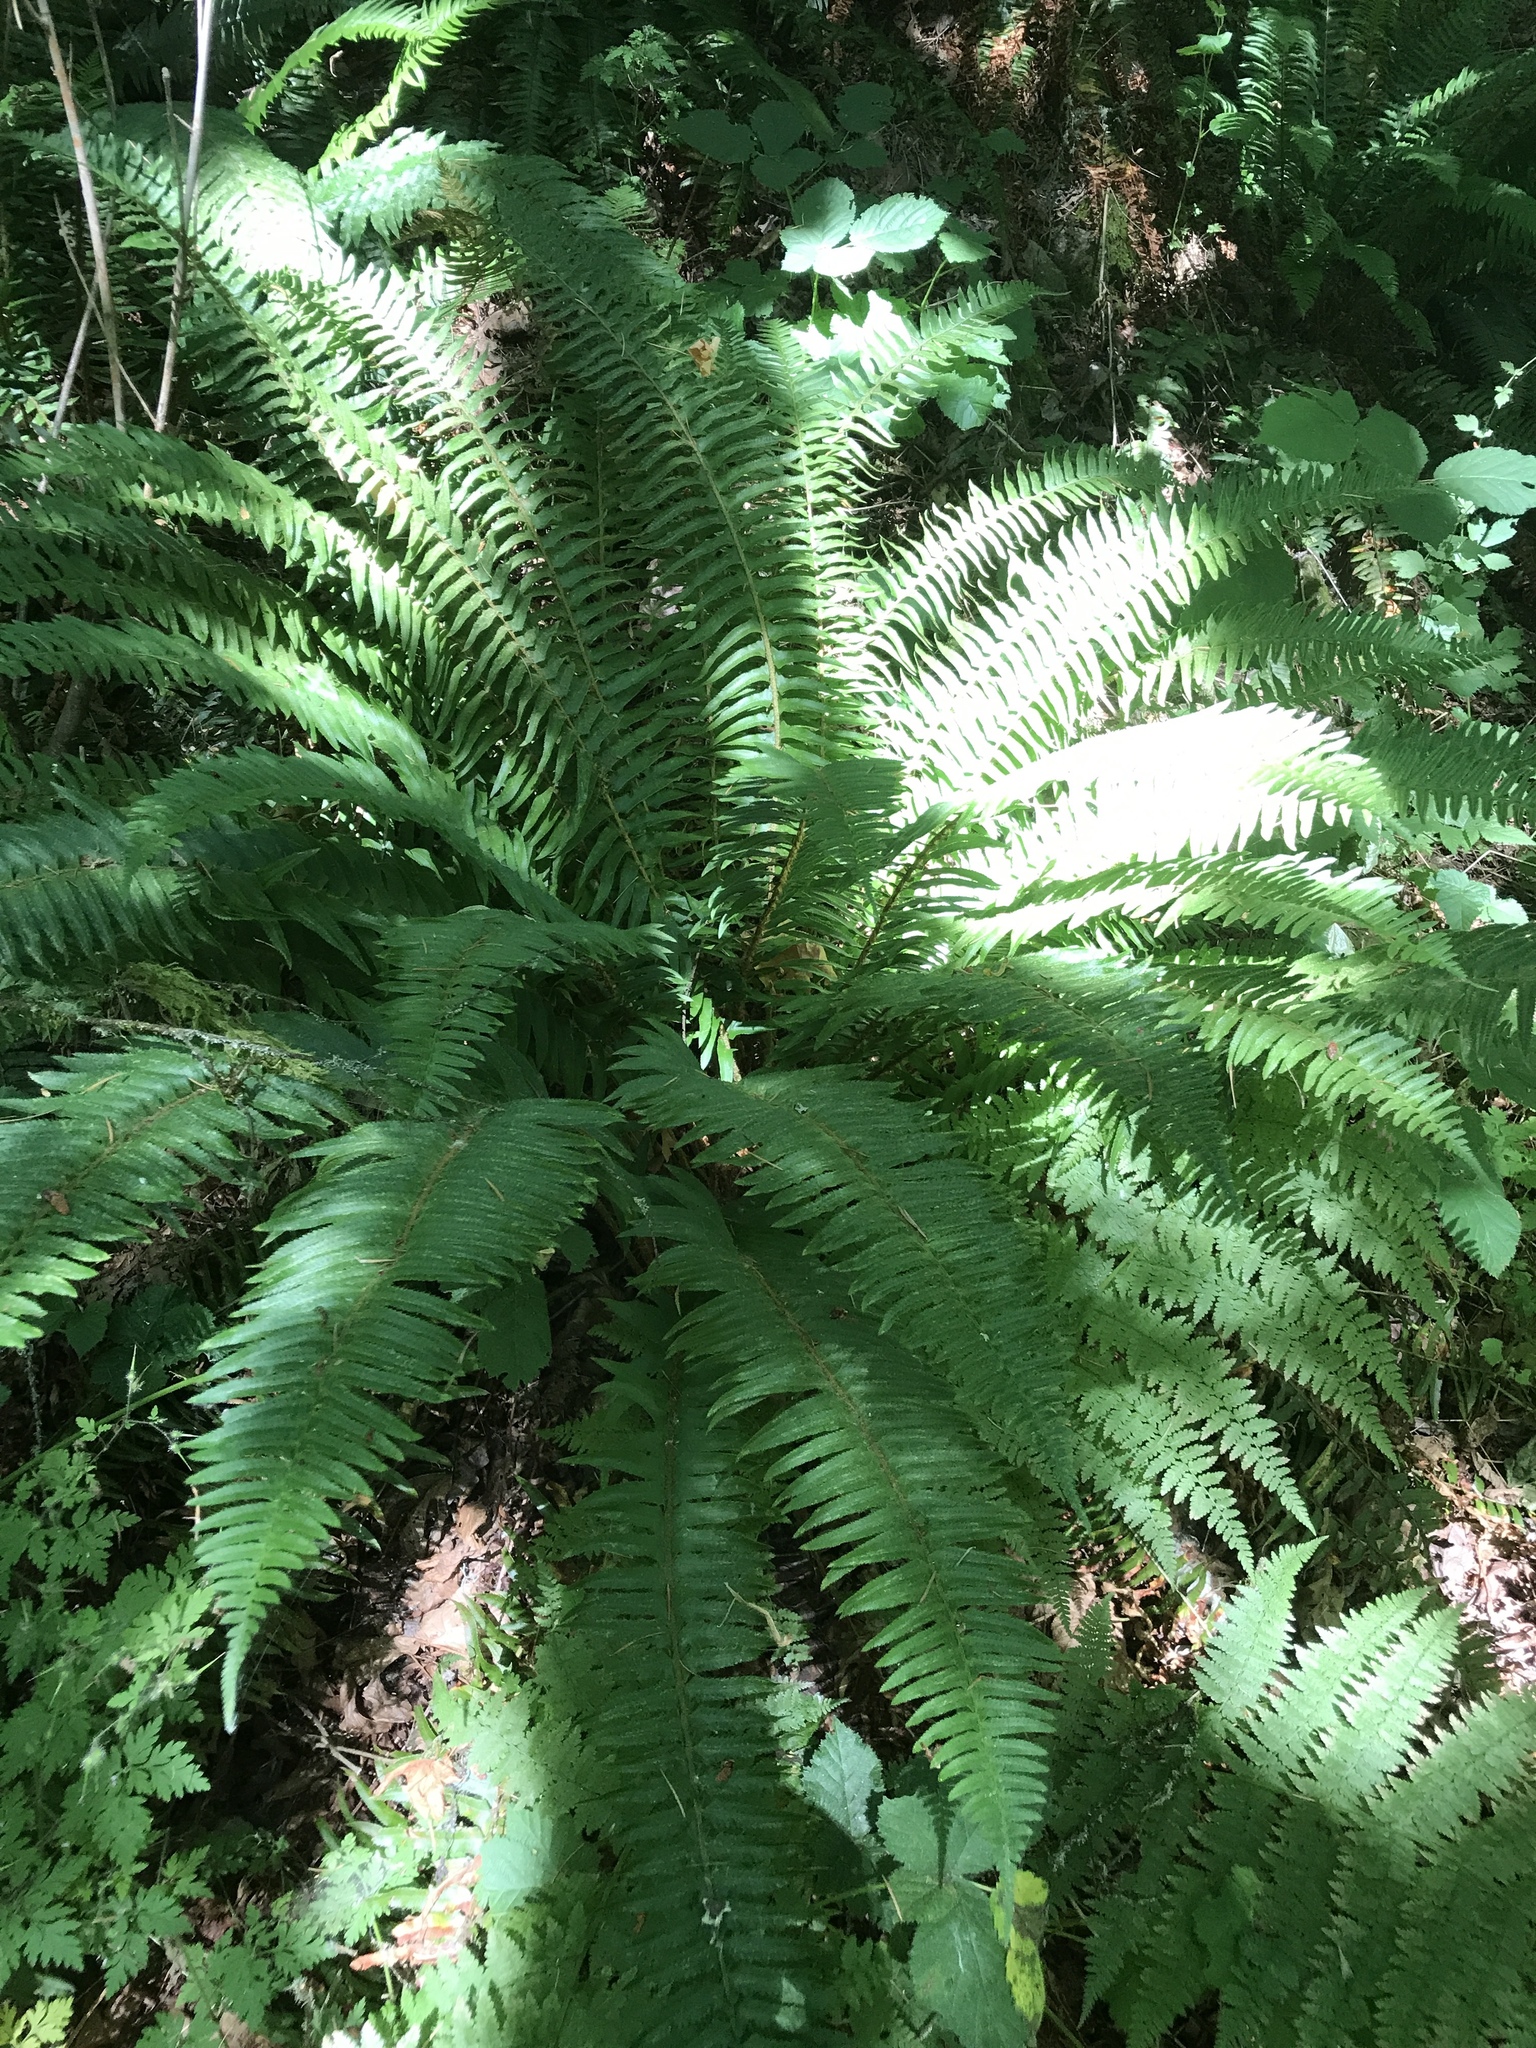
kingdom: Plantae
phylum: Tracheophyta
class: Polypodiopsida
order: Polypodiales
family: Dryopteridaceae
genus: Polystichum
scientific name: Polystichum munitum
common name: Western sword-fern
